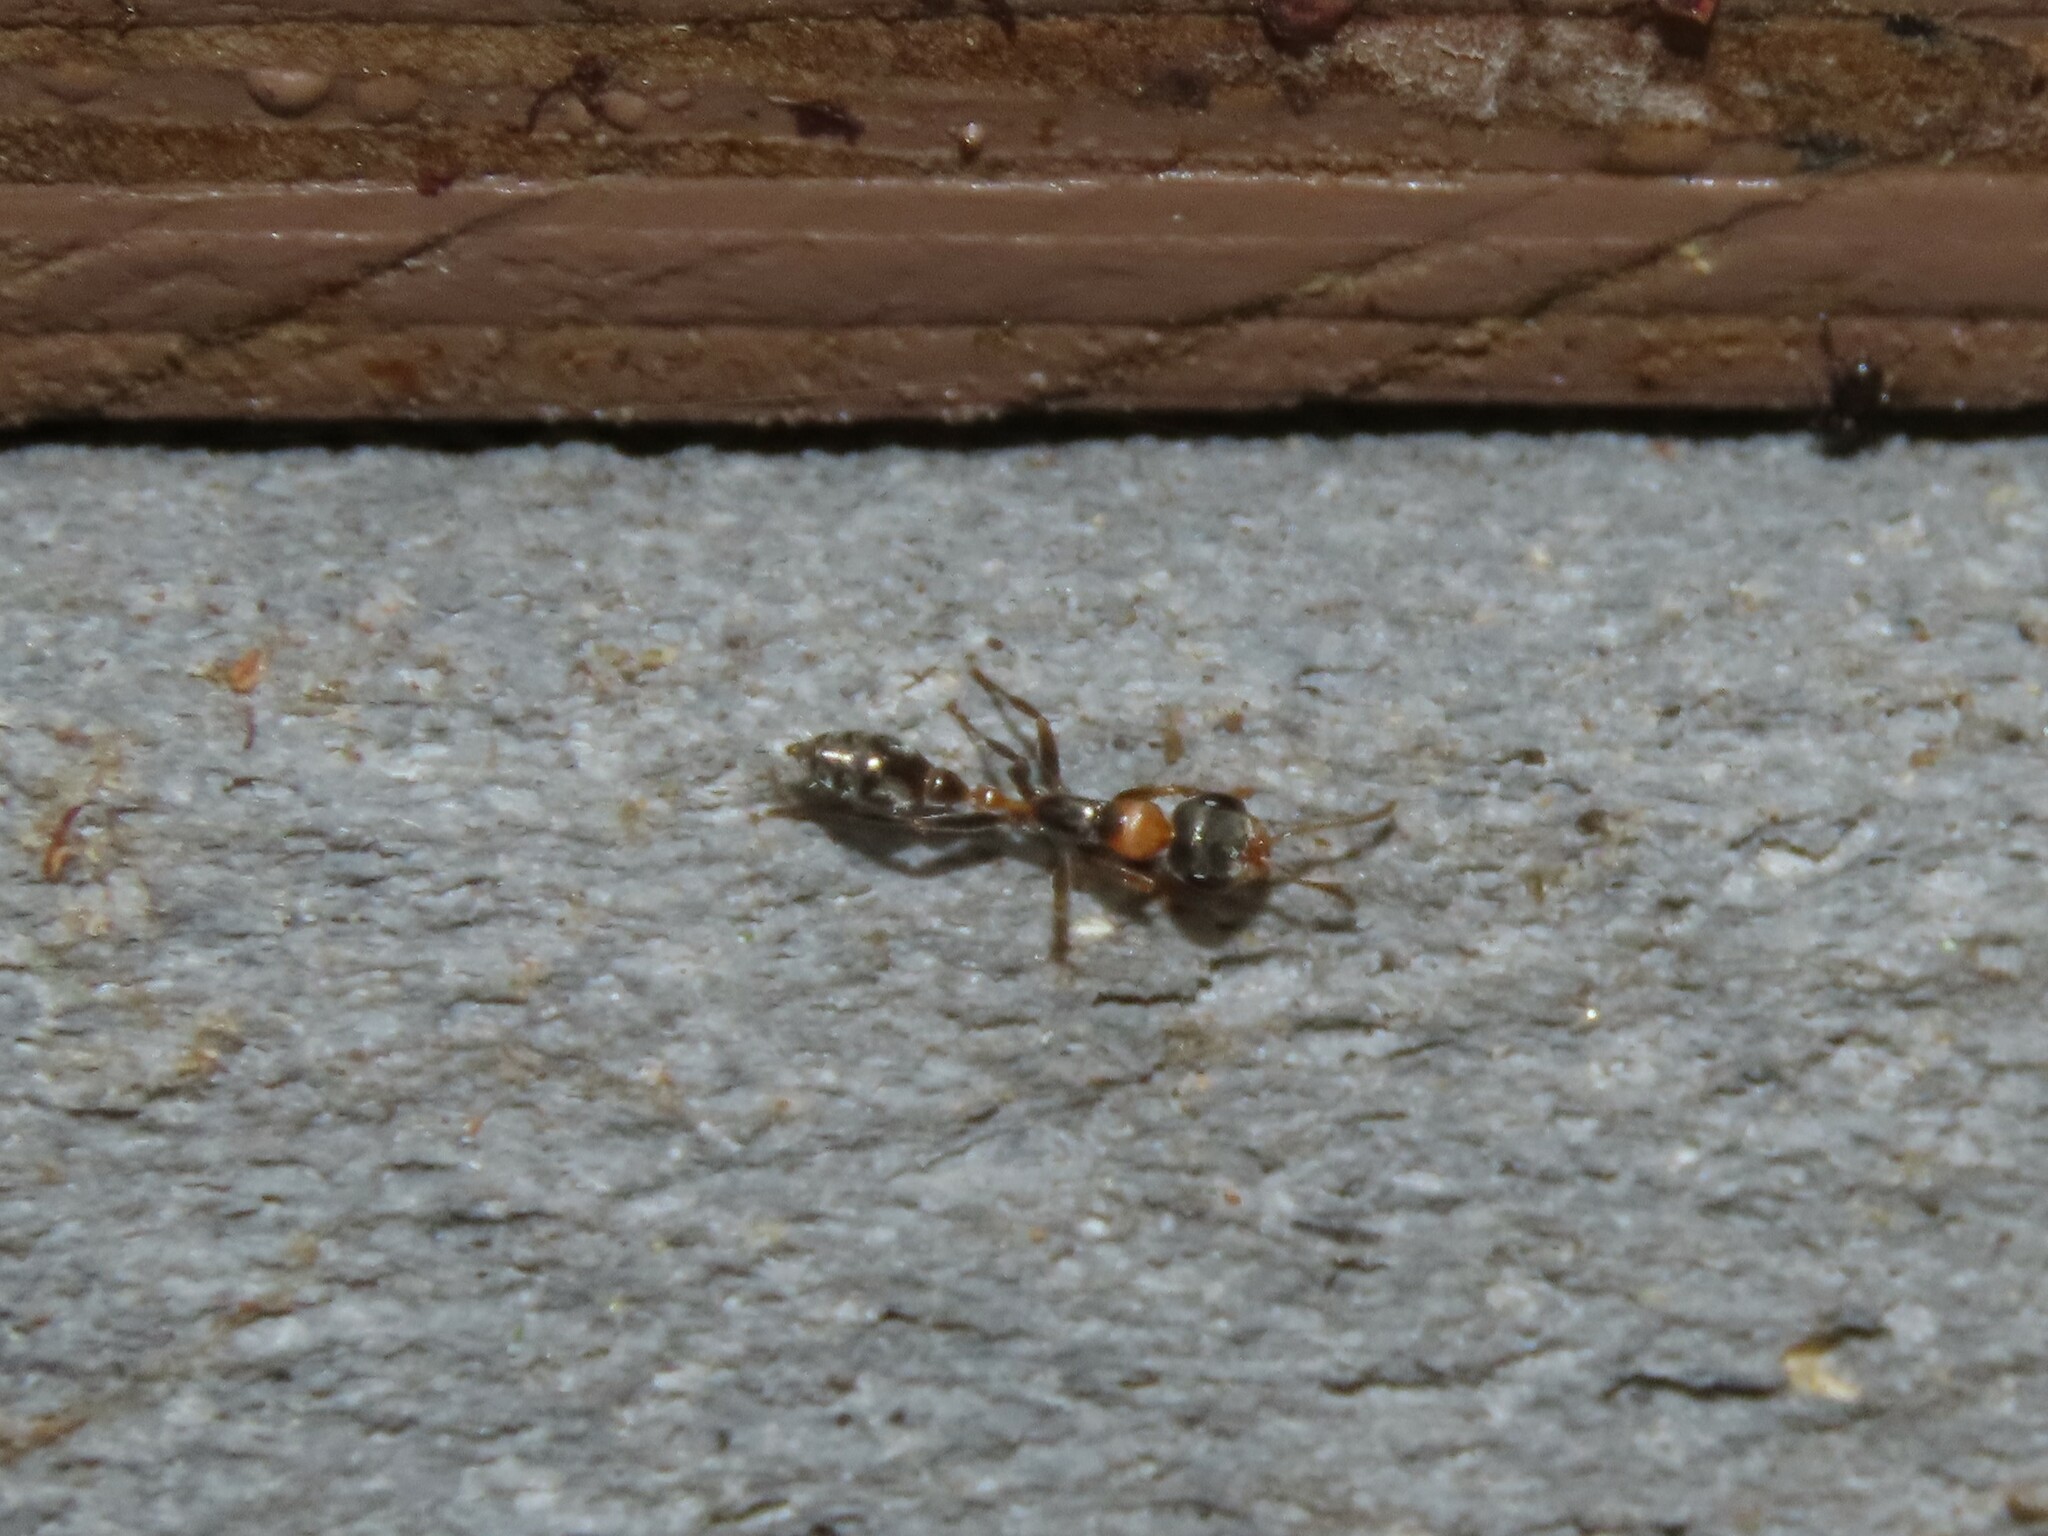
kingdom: Animalia
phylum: Arthropoda
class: Insecta
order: Hymenoptera
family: Formicidae
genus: Pseudomyrmex
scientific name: Pseudomyrmex gracilis
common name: Graceful twig ant
